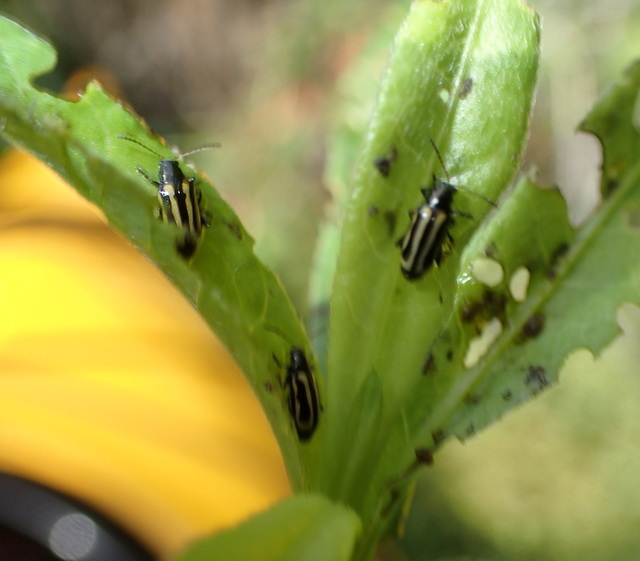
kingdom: Animalia
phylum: Arthropoda
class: Insecta
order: Coleoptera
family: Chrysomelidae
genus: Agasicles
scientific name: Agasicles hygrophila
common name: Alligatorweed flea beetle
